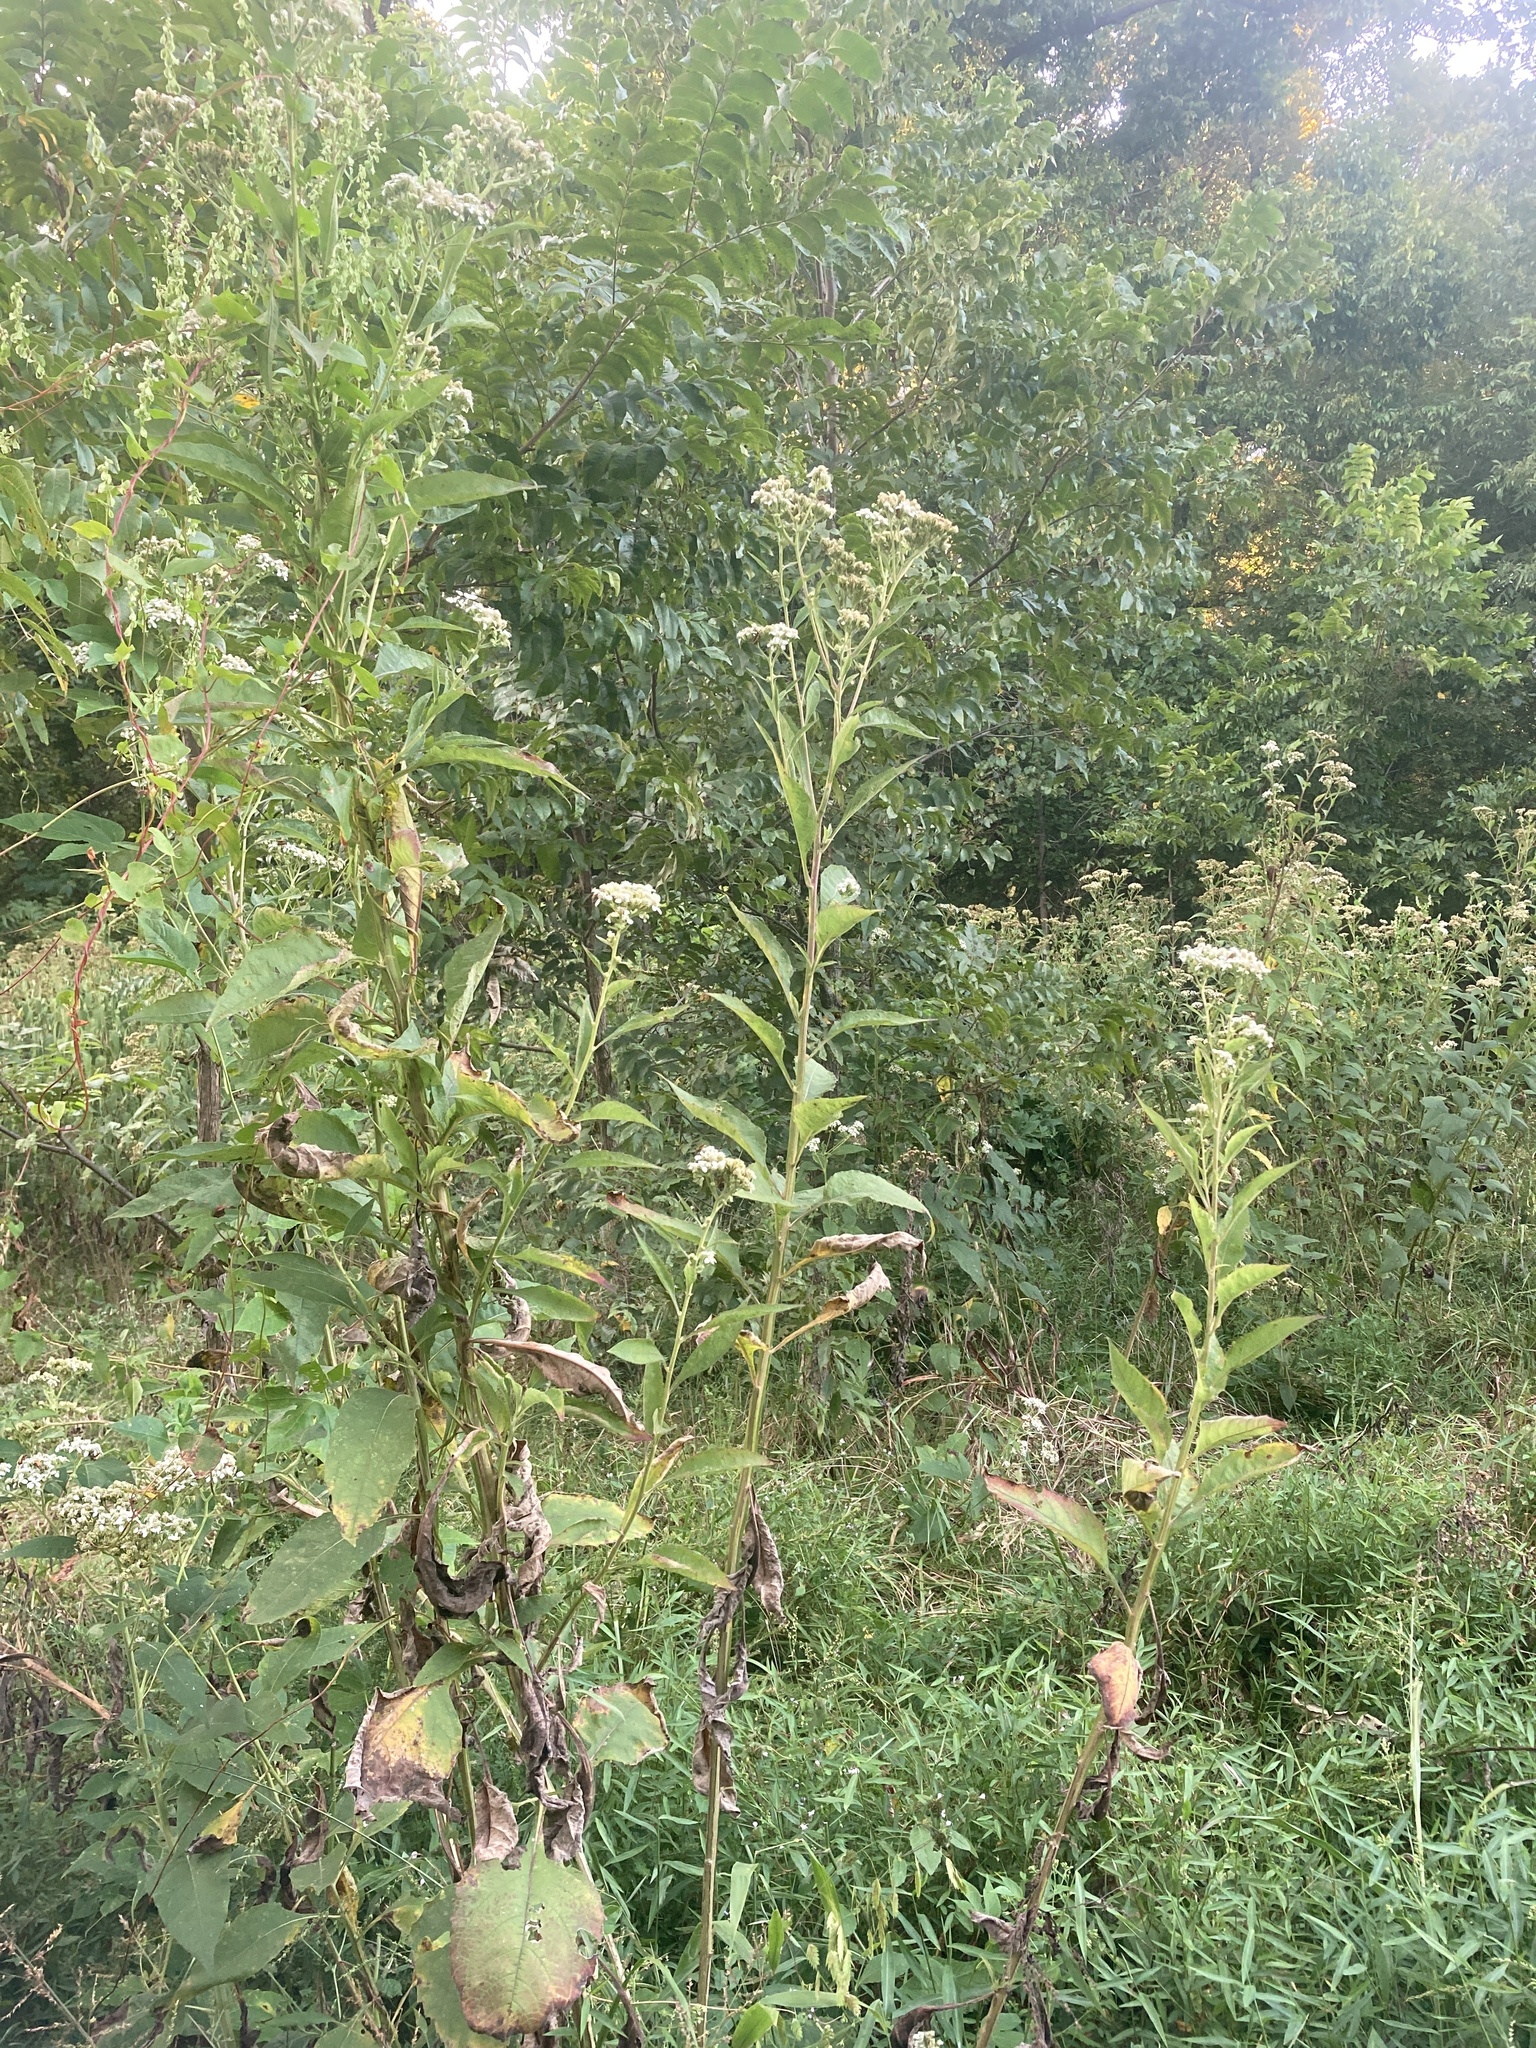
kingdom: Plantae
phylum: Tracheophyta
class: Magnoliopsida
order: Asterales
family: Asteraceae
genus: Verbesina
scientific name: Verbesina virginica
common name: Frostweed
